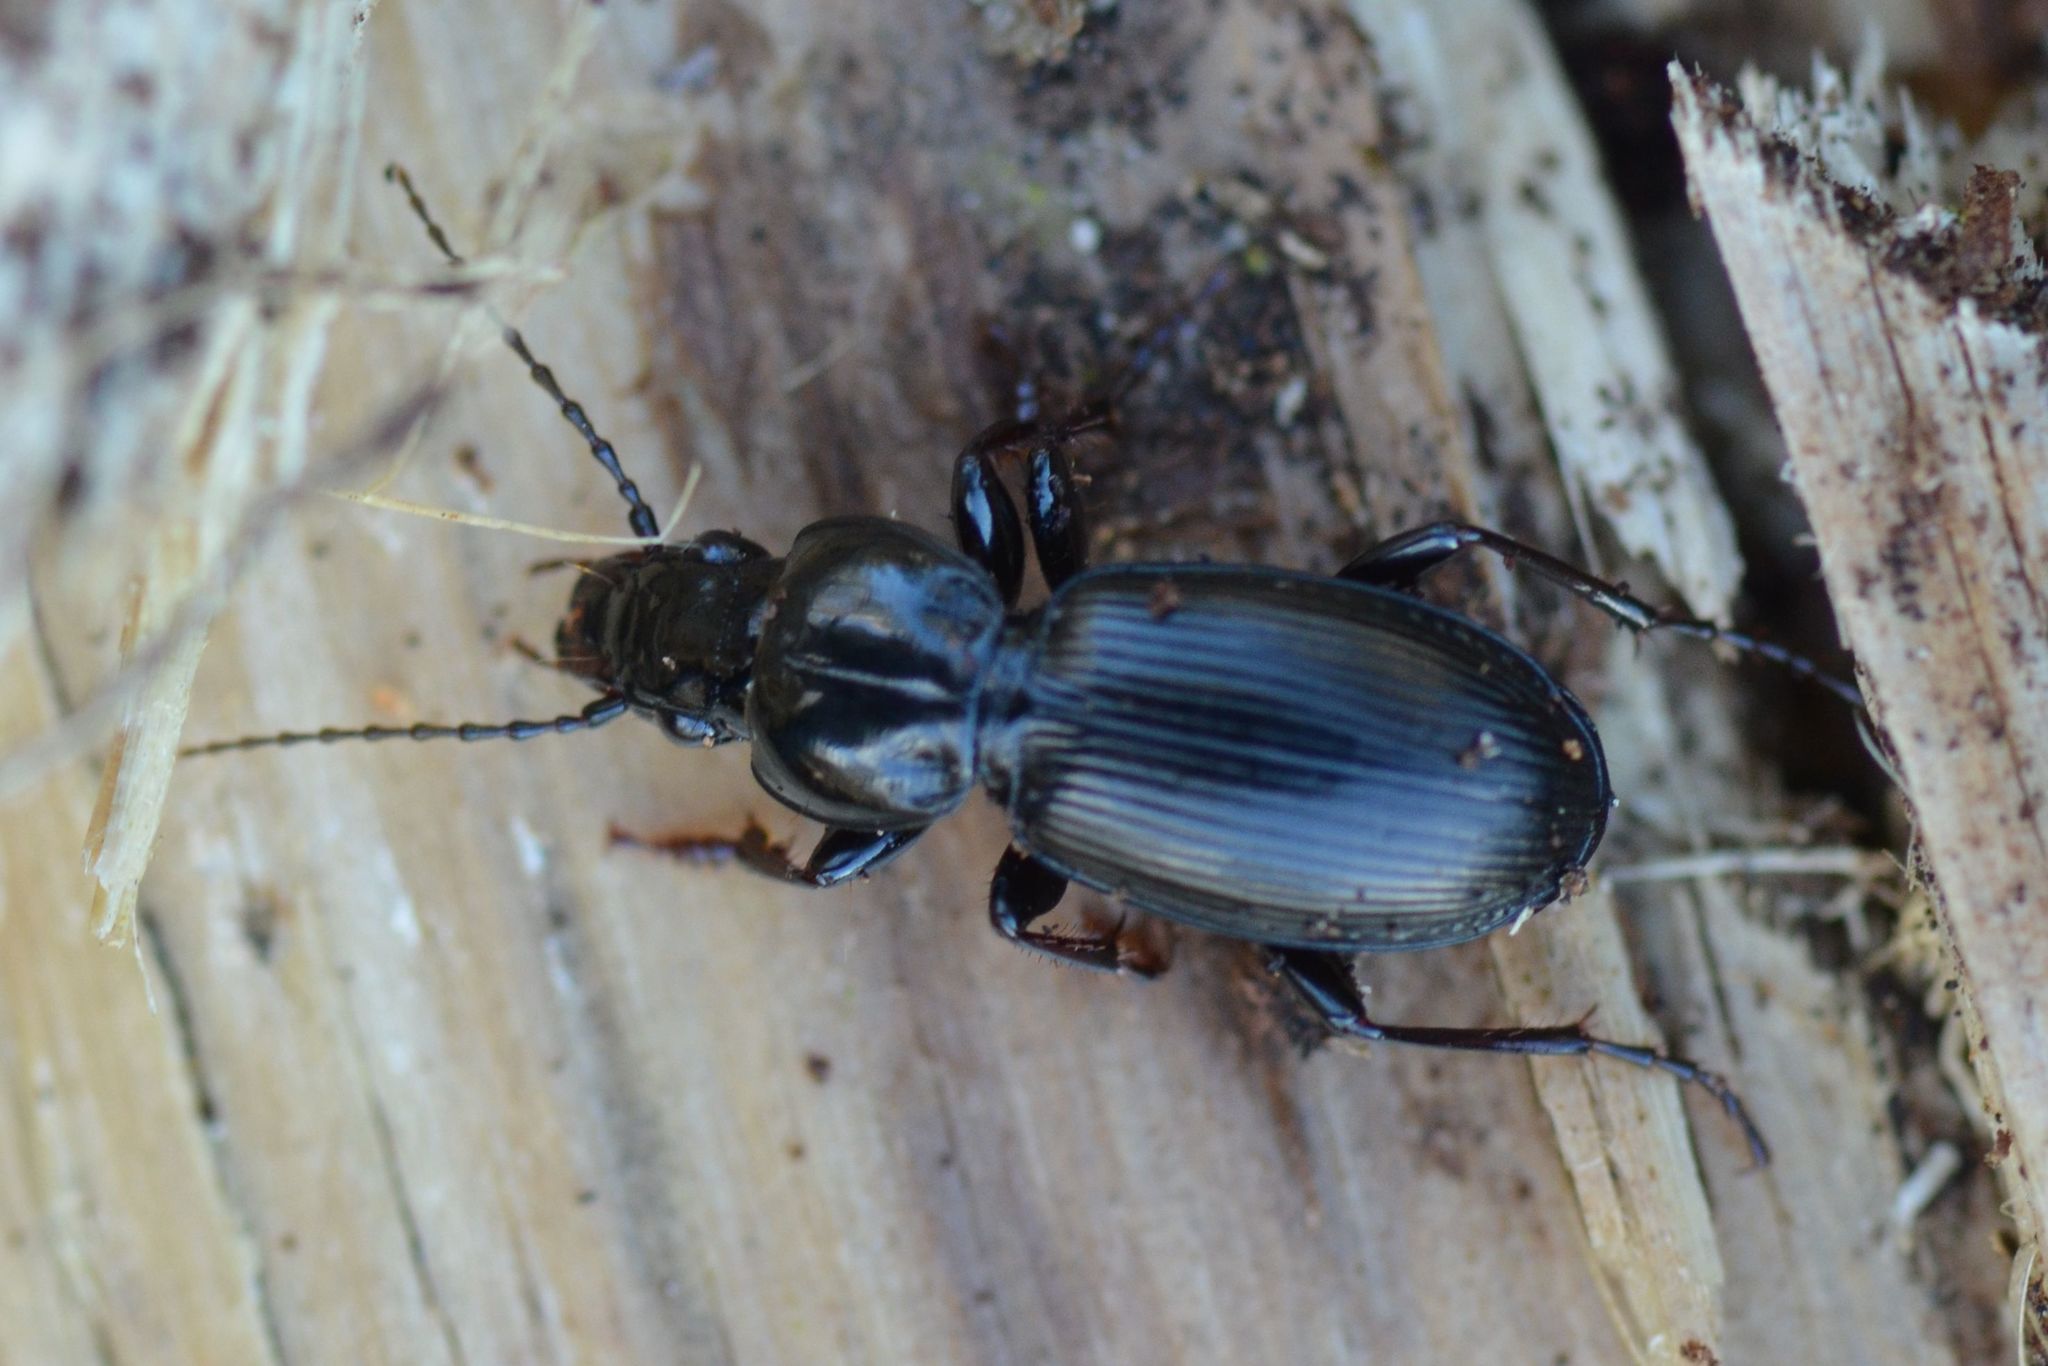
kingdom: Animalia
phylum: Arthropoda
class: Insecta
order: Coleoptera
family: Carabidae
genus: Pterostichus
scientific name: Pterostichus madidus
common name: Black clock
